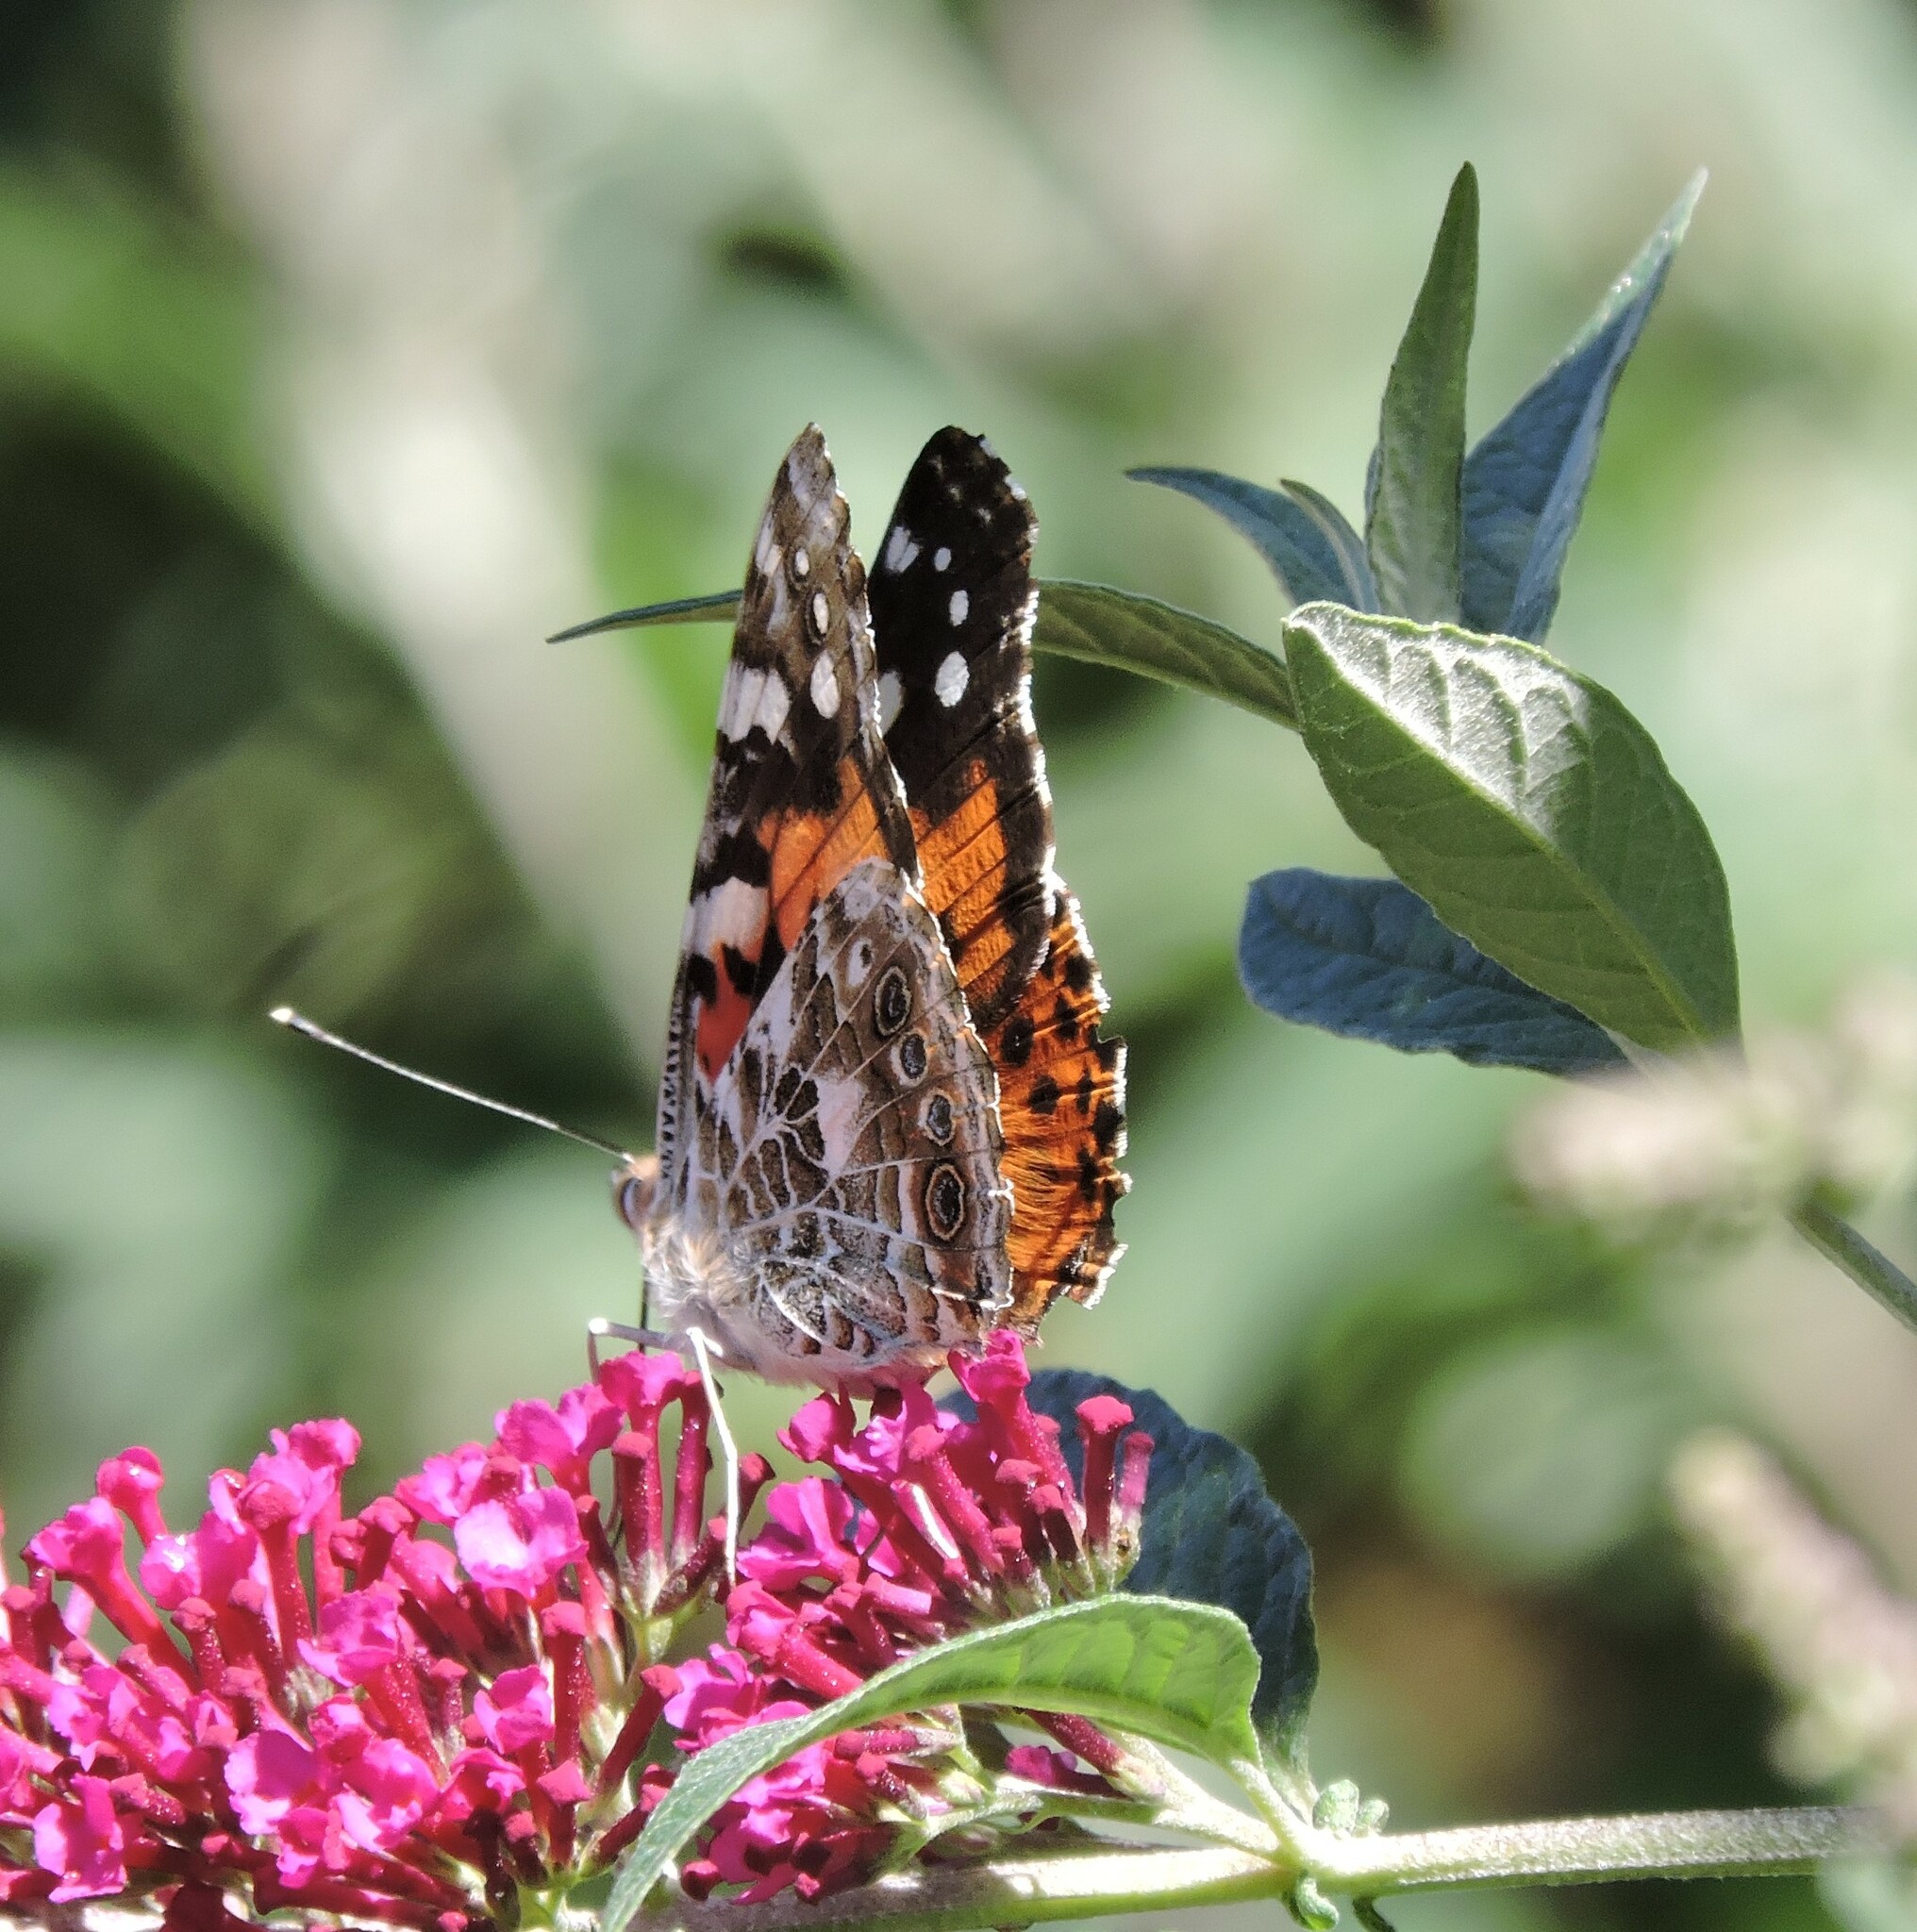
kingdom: Animalia
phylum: Arthropoda
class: Insecta
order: Lepidoptera
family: Nymphalidae
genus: Vanessa
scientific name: Vanessa cardui
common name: Painted lady
